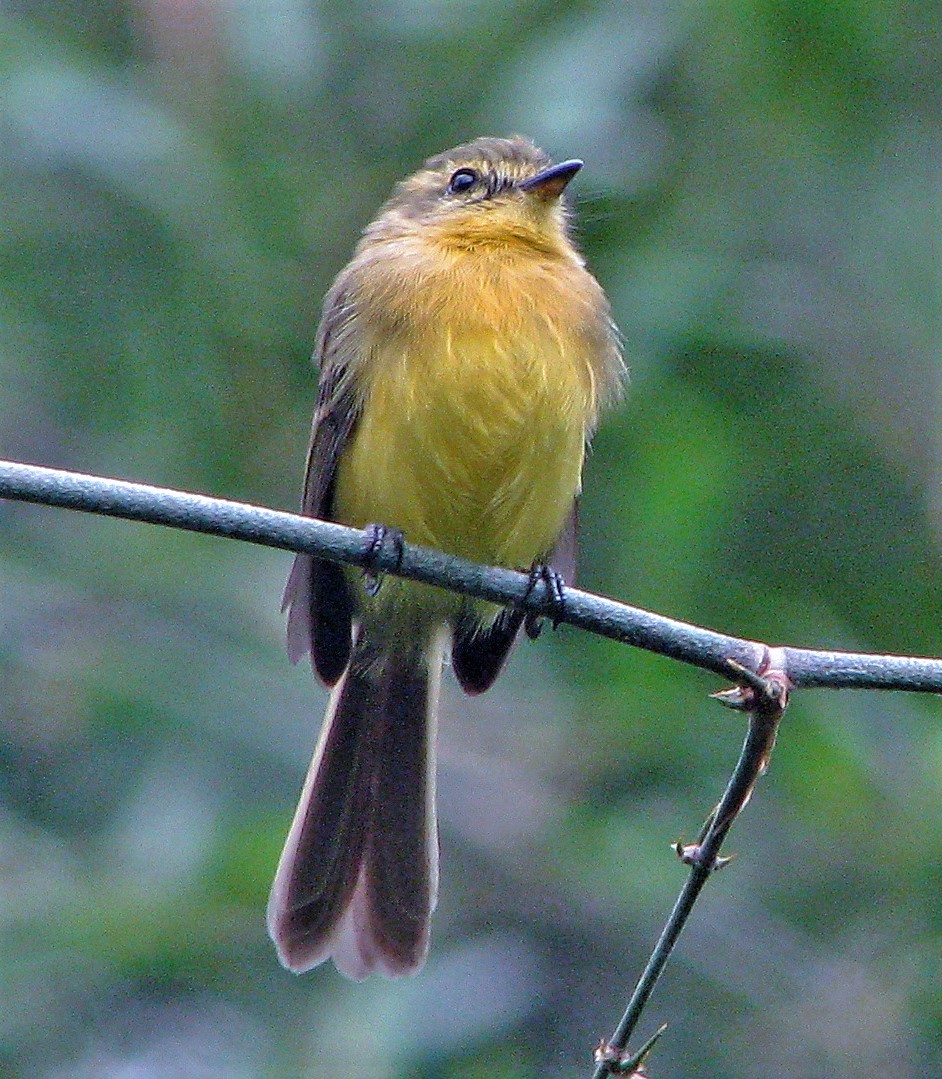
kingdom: Animalia
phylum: Chordata
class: Aves
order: Passeriformes
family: Tyrannidae
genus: Capsiempis
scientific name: Capsiempis flaveola
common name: Yellow tyrannulet
